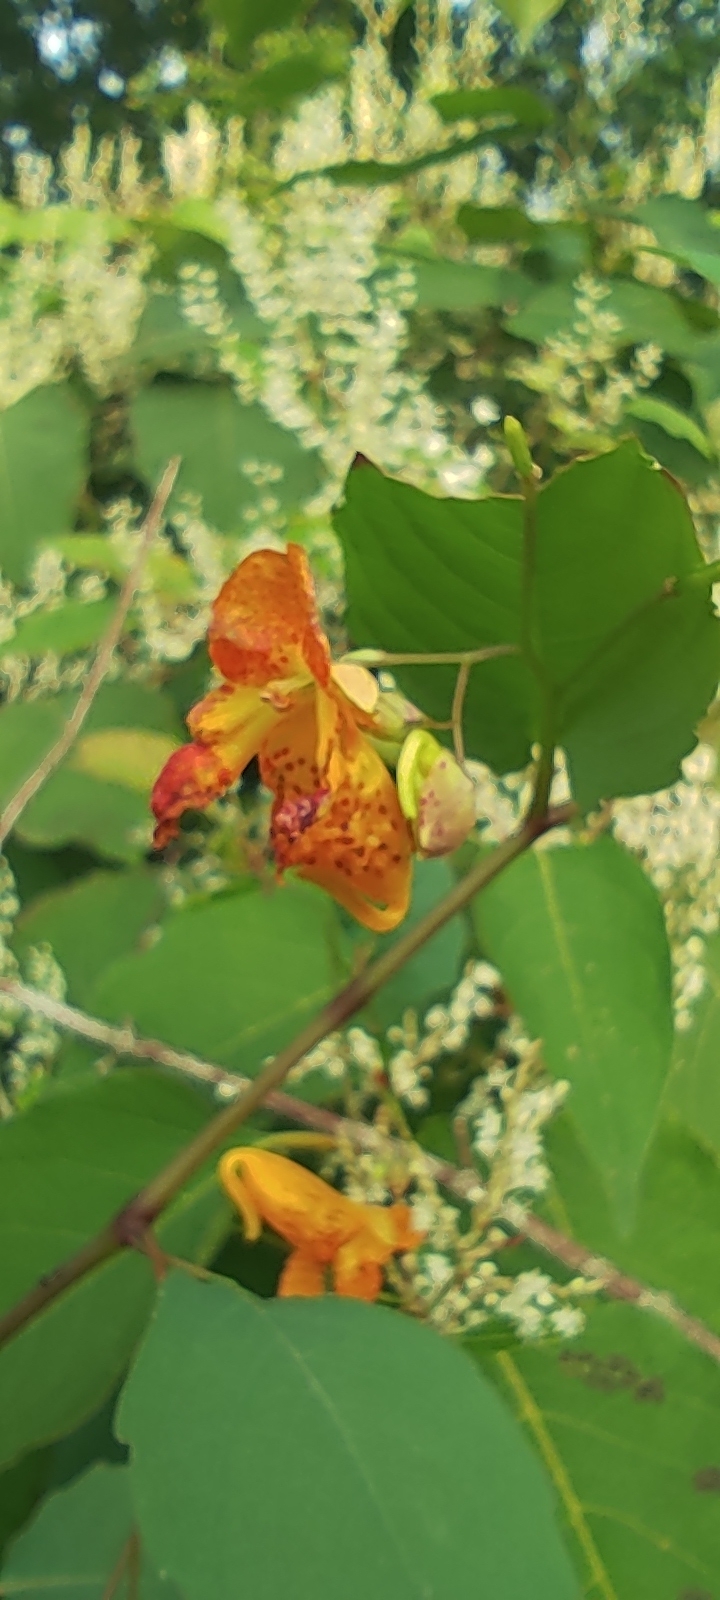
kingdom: Plantae
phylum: Tracheophyta
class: Magnoliopsida
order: Ericales
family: Balsaminaceae
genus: Impatiens
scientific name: Impatiens capensis
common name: Orange balsam
